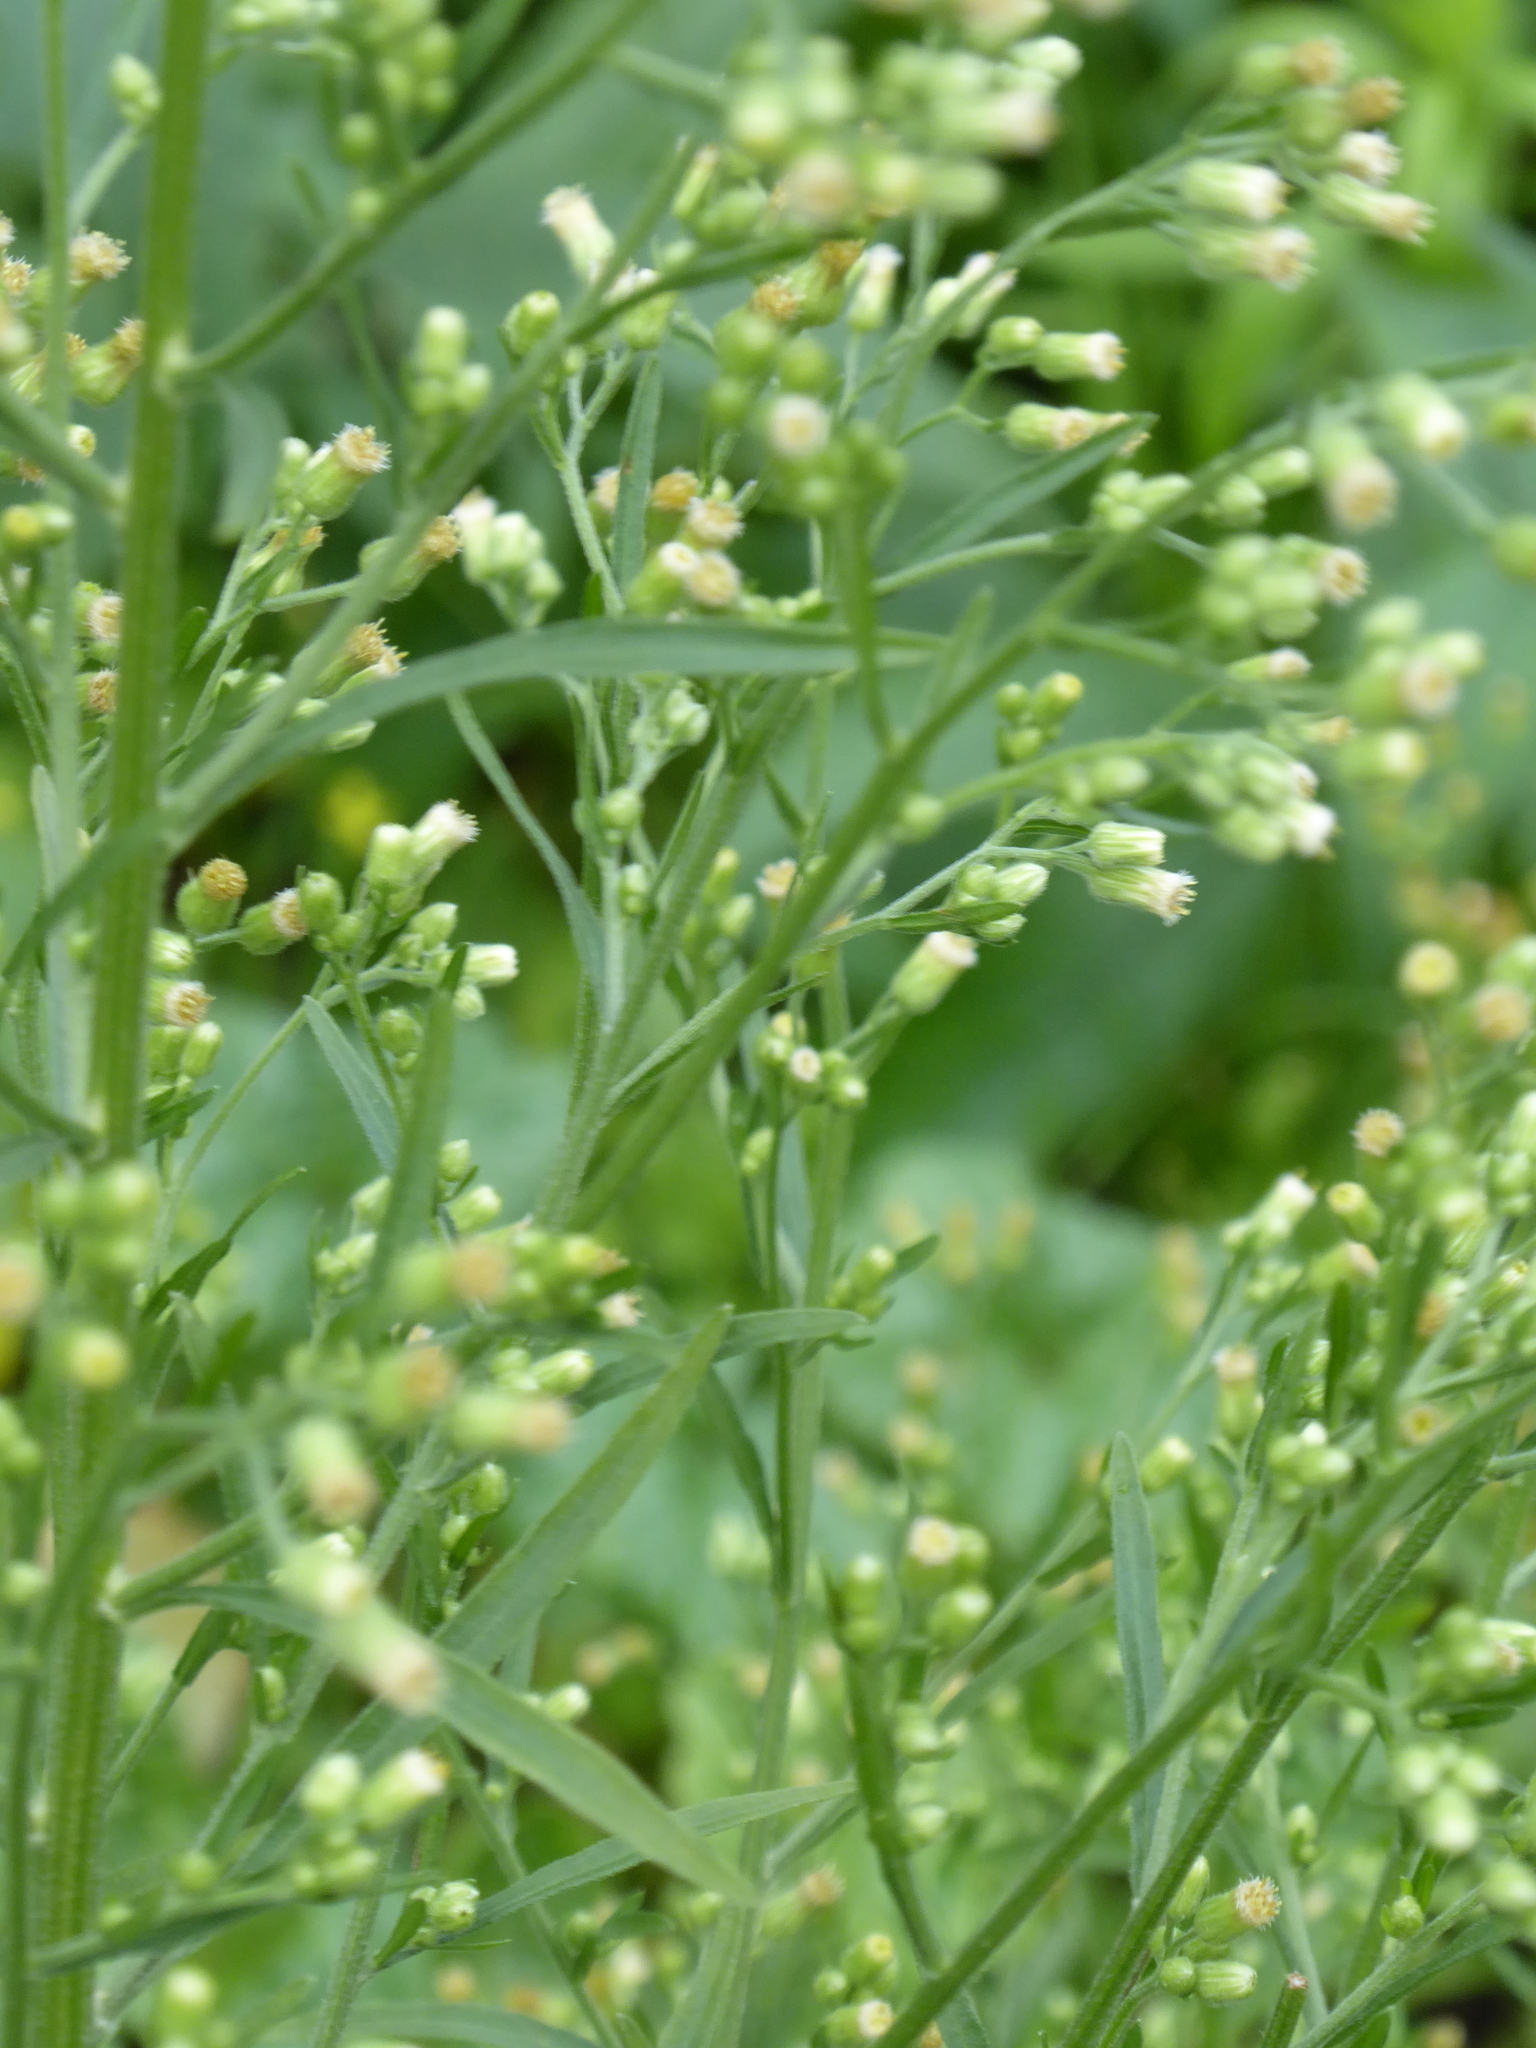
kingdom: Plantae
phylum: Tracheophyta
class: Magnoliopsida
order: Asterales
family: Asteraceae
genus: Erigeron
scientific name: Erigeron sumatrensis
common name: Daisy
